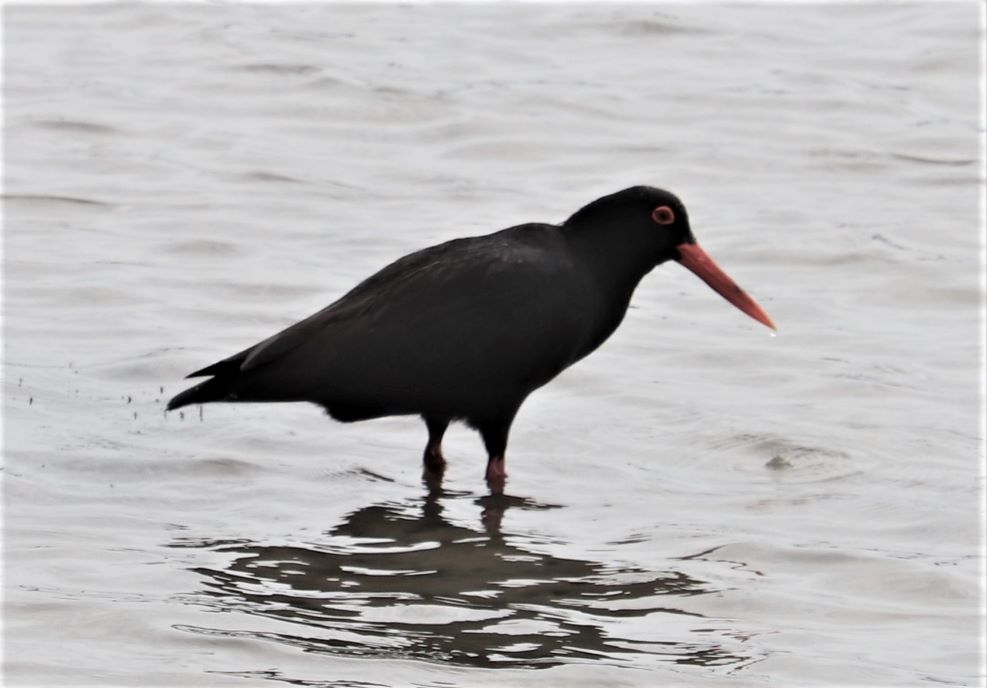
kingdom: Animalia
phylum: Chordata
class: Aves
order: Charadriiformes
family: Haematopodidae
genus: Haematopus
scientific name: Haematopus moquini
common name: African oystercatcher
